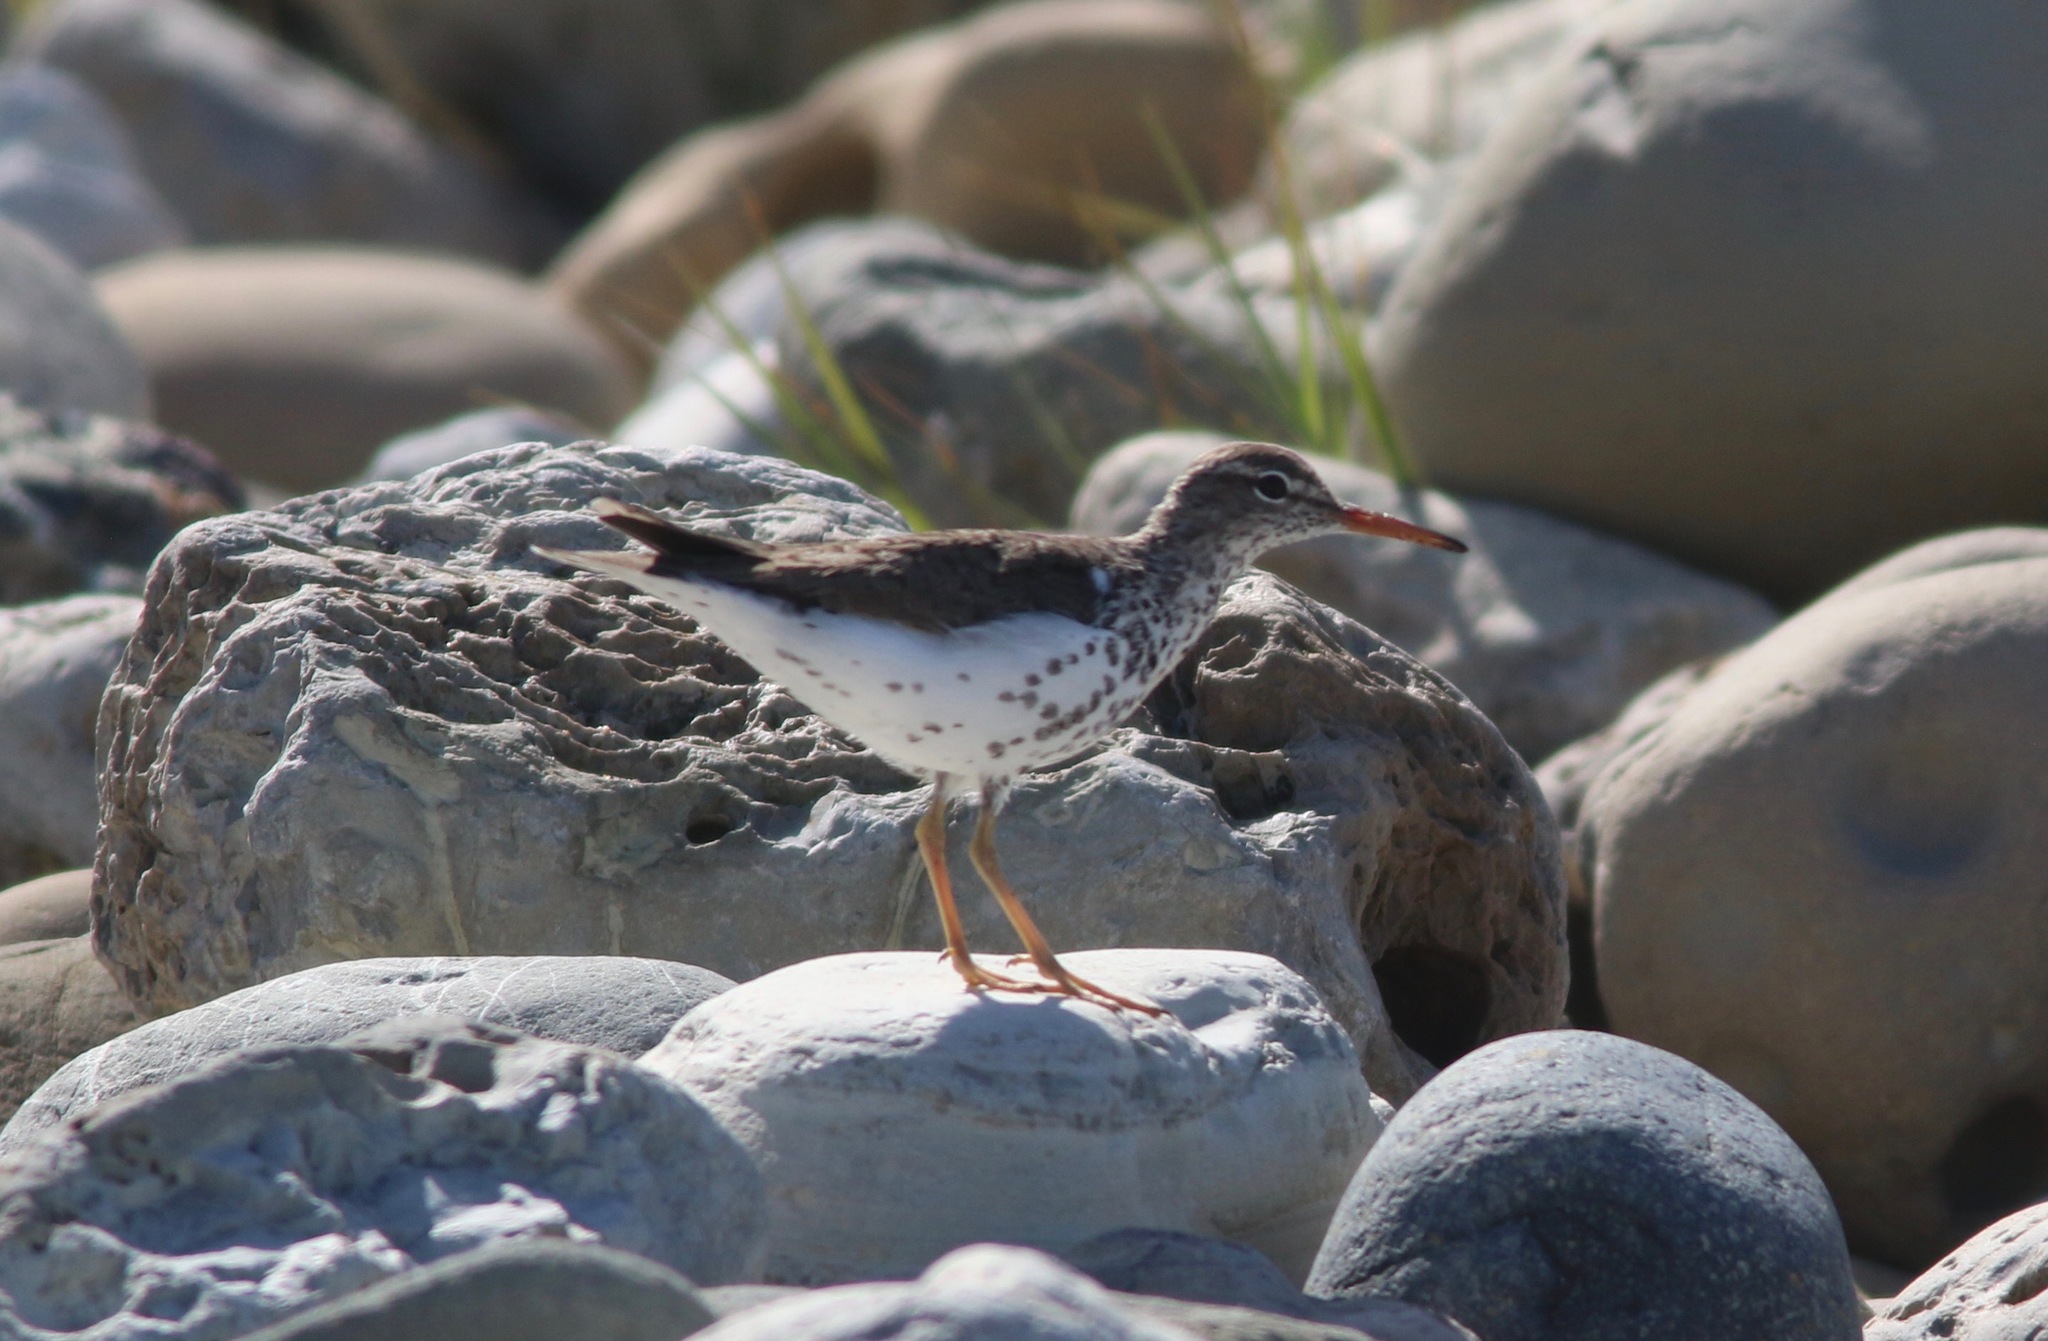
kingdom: Animalia
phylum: Chordata
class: Aves
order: Charadriiformes
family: Scolopacidae
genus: Actitis
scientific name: Actitis macularius
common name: Spotted sandpiper
